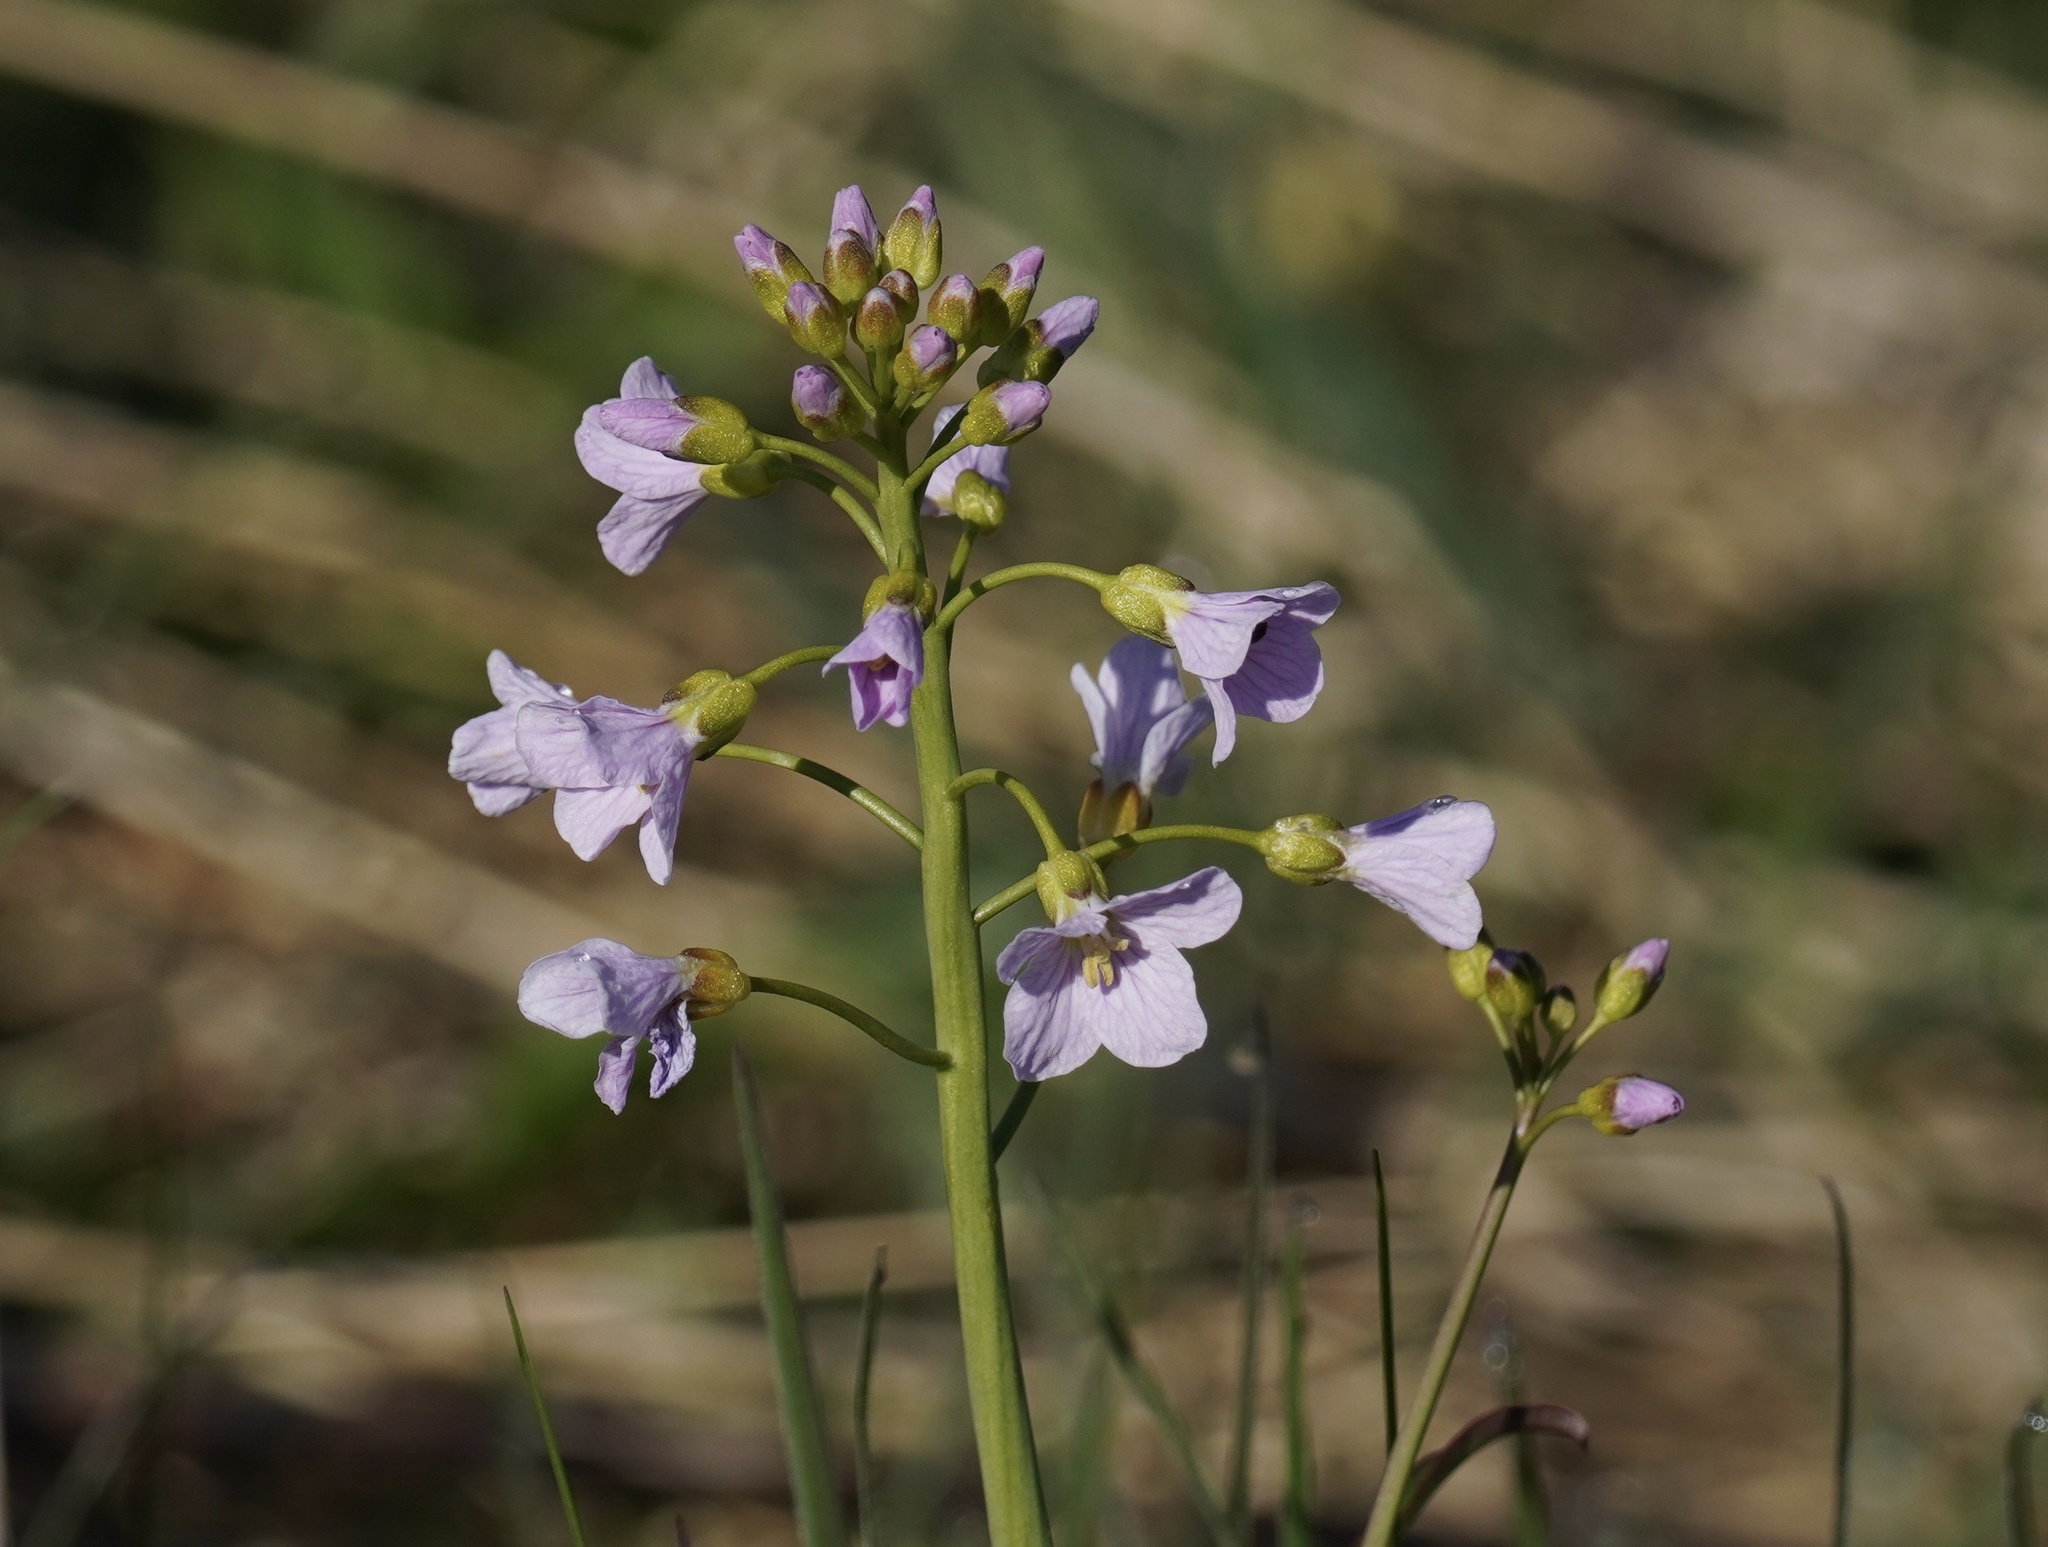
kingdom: Plantae
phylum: Tracheophyta
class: Magnoliopsida
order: Brassicales
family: Brassicaceae
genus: Cardamine
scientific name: Cardamine pratensis
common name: Cuckoo flower
